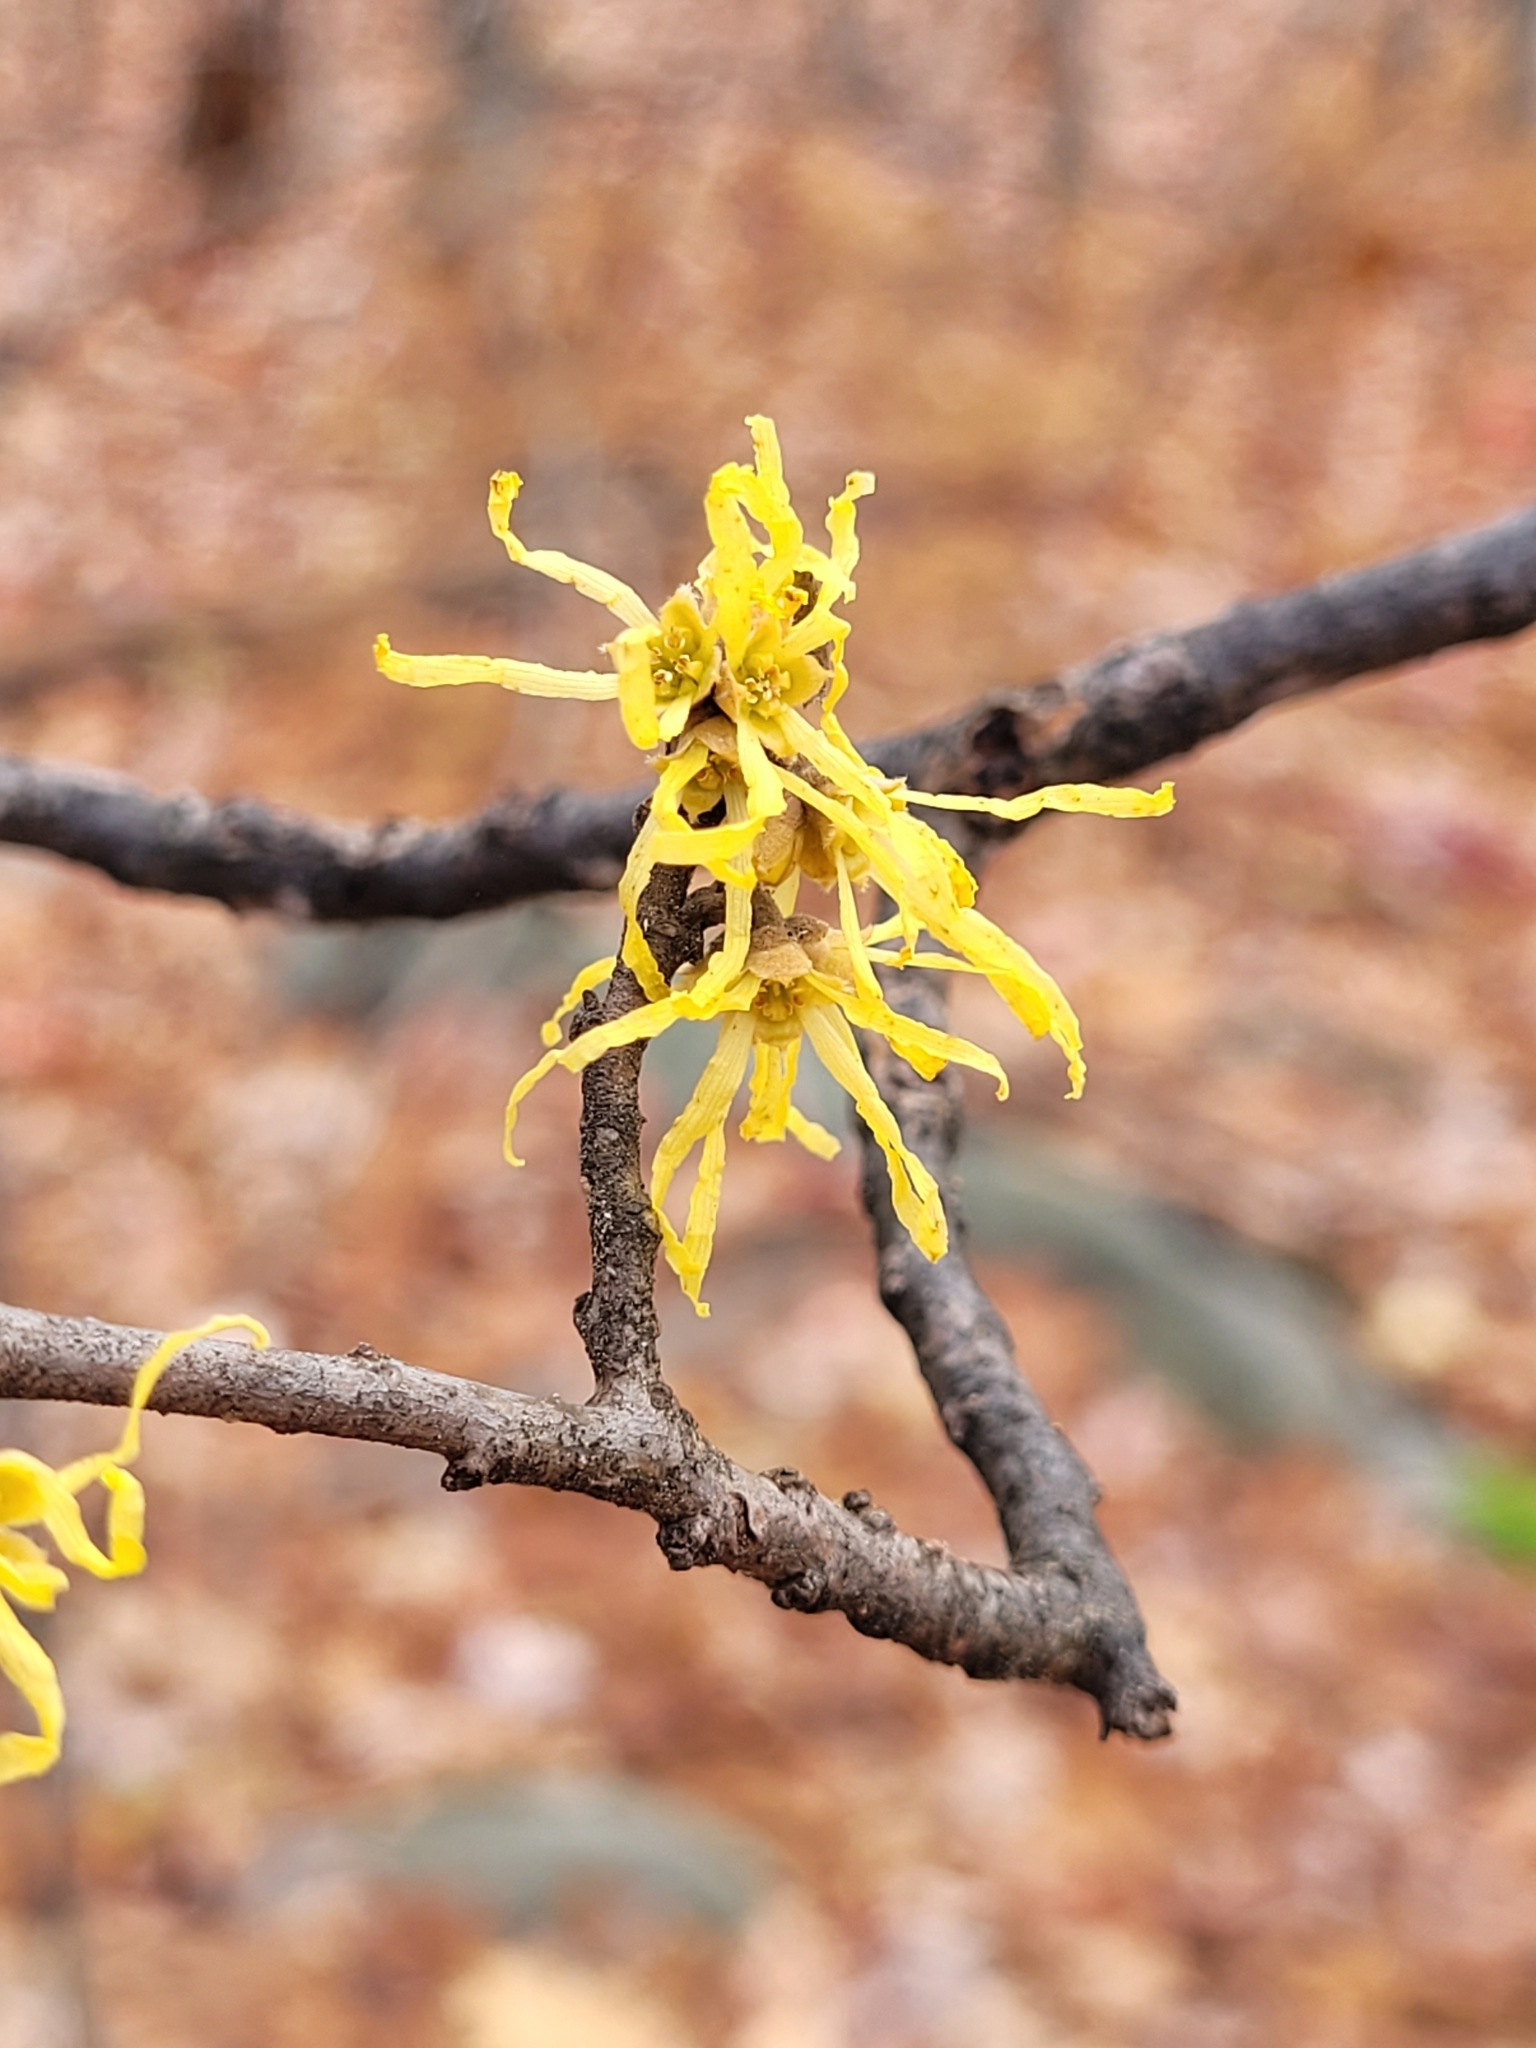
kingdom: Plantae
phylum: Tracheophyta
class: Magnoliopsida
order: Saxifragales
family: Hamamelidaceae
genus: Hamamelis
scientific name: Hamamelis virginiana
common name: Witch-hazel
